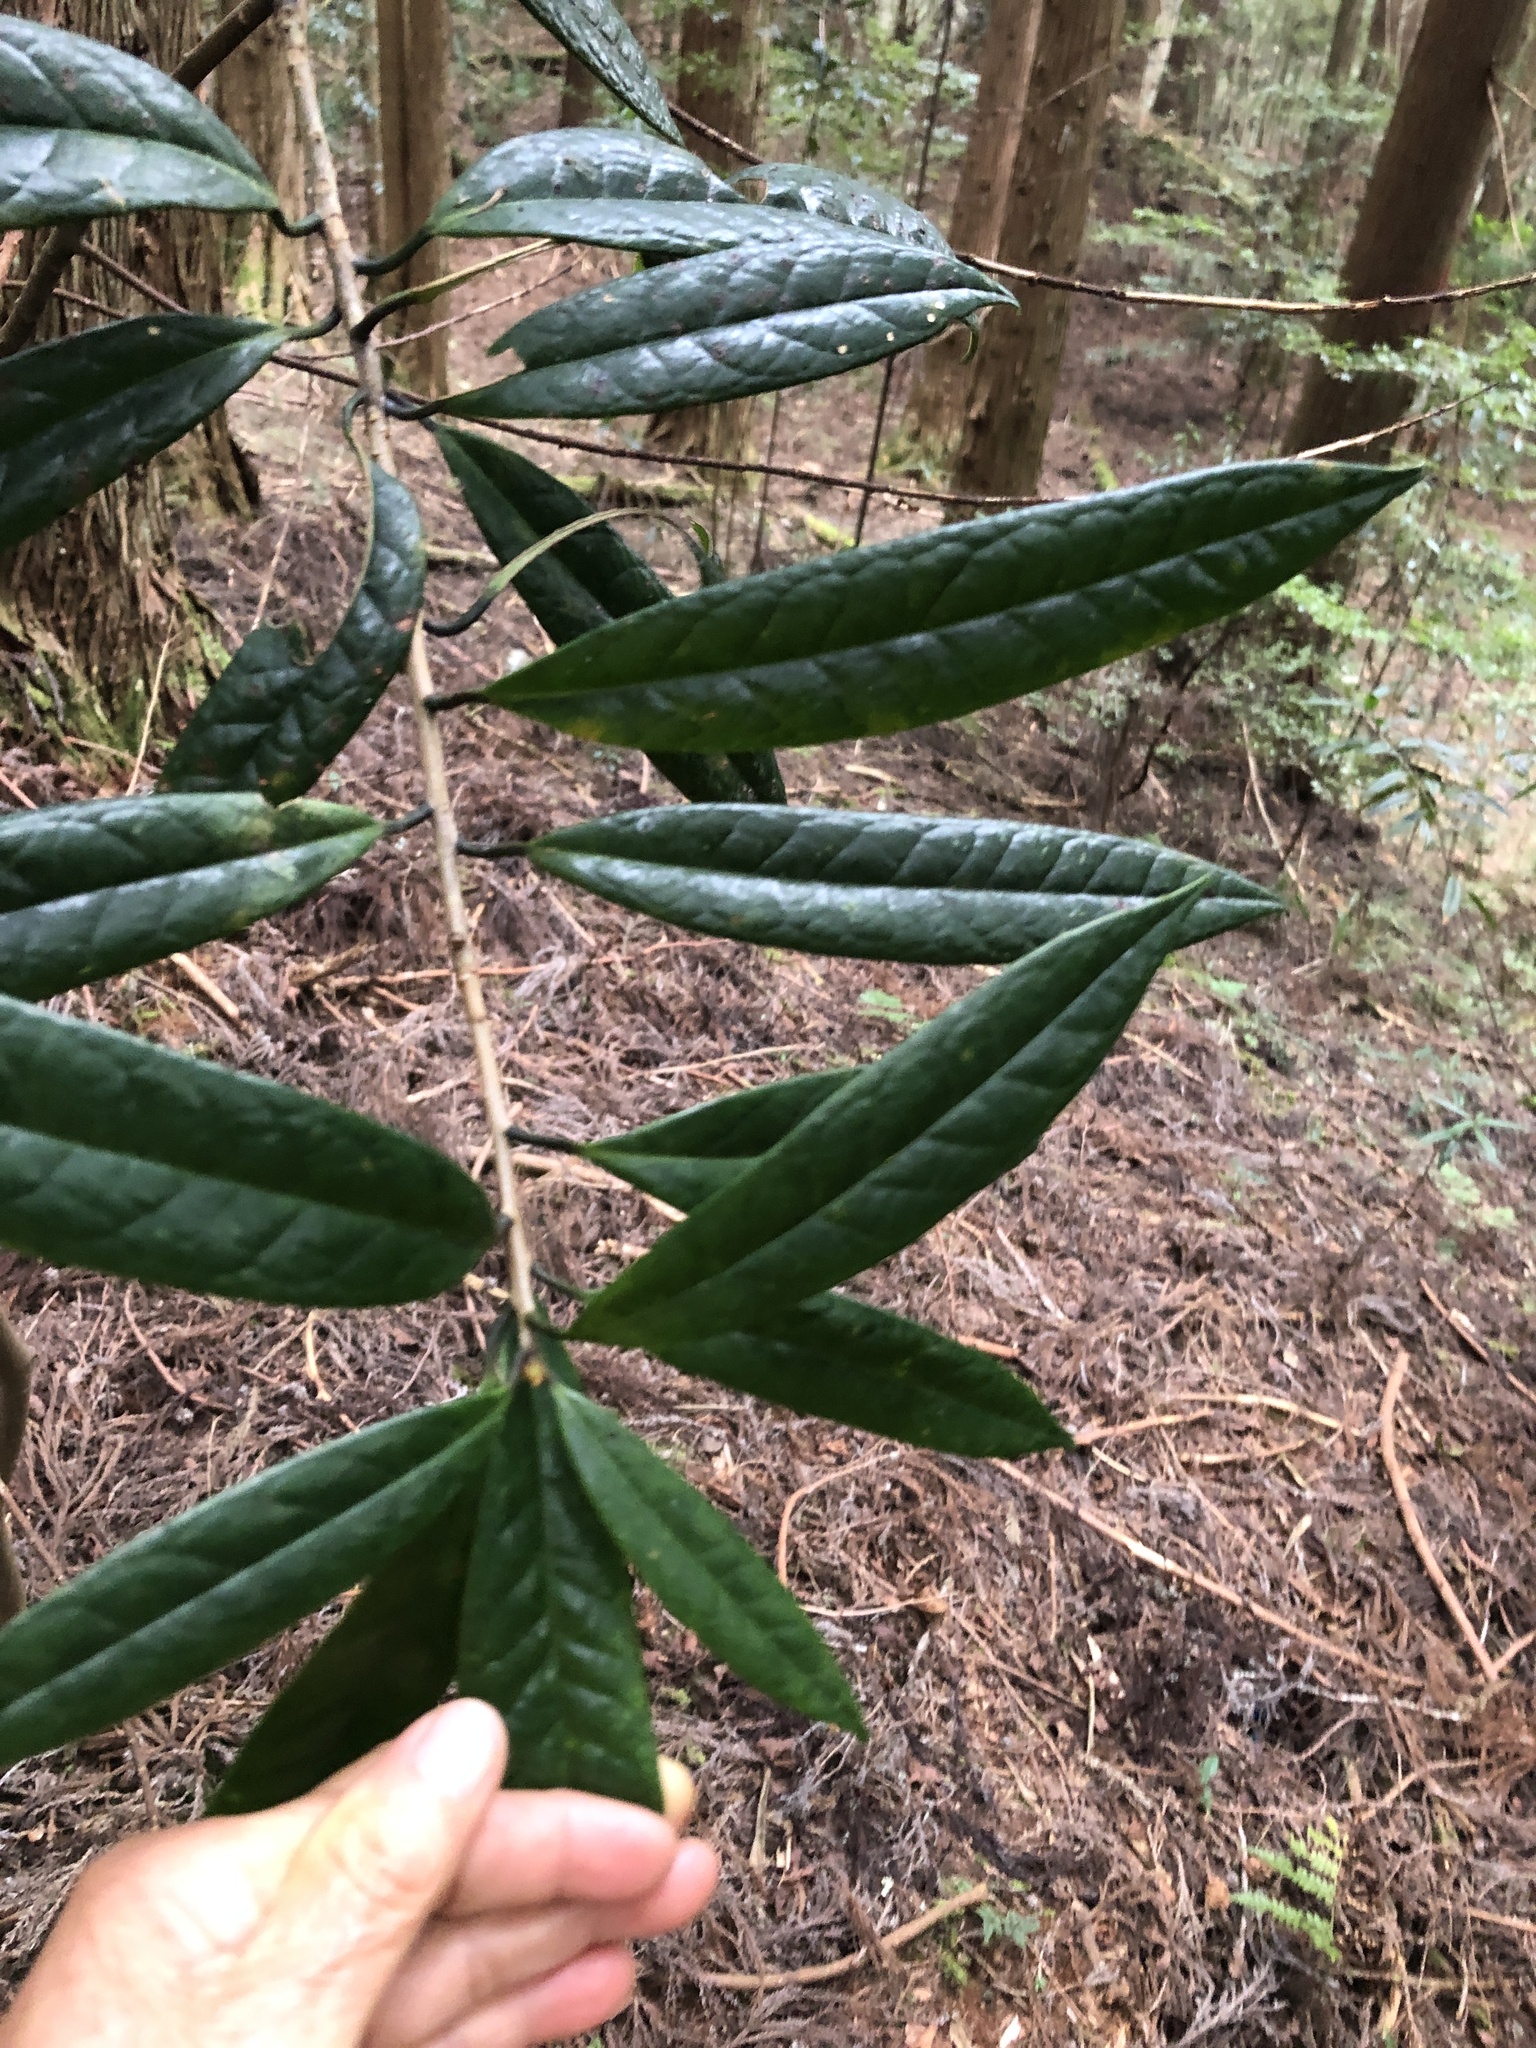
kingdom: Plantae
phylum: Tracheophyta
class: Magnoliopsida
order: Ericales
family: Symplocaceae
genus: Symplocos
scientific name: Symplocos stellaris
